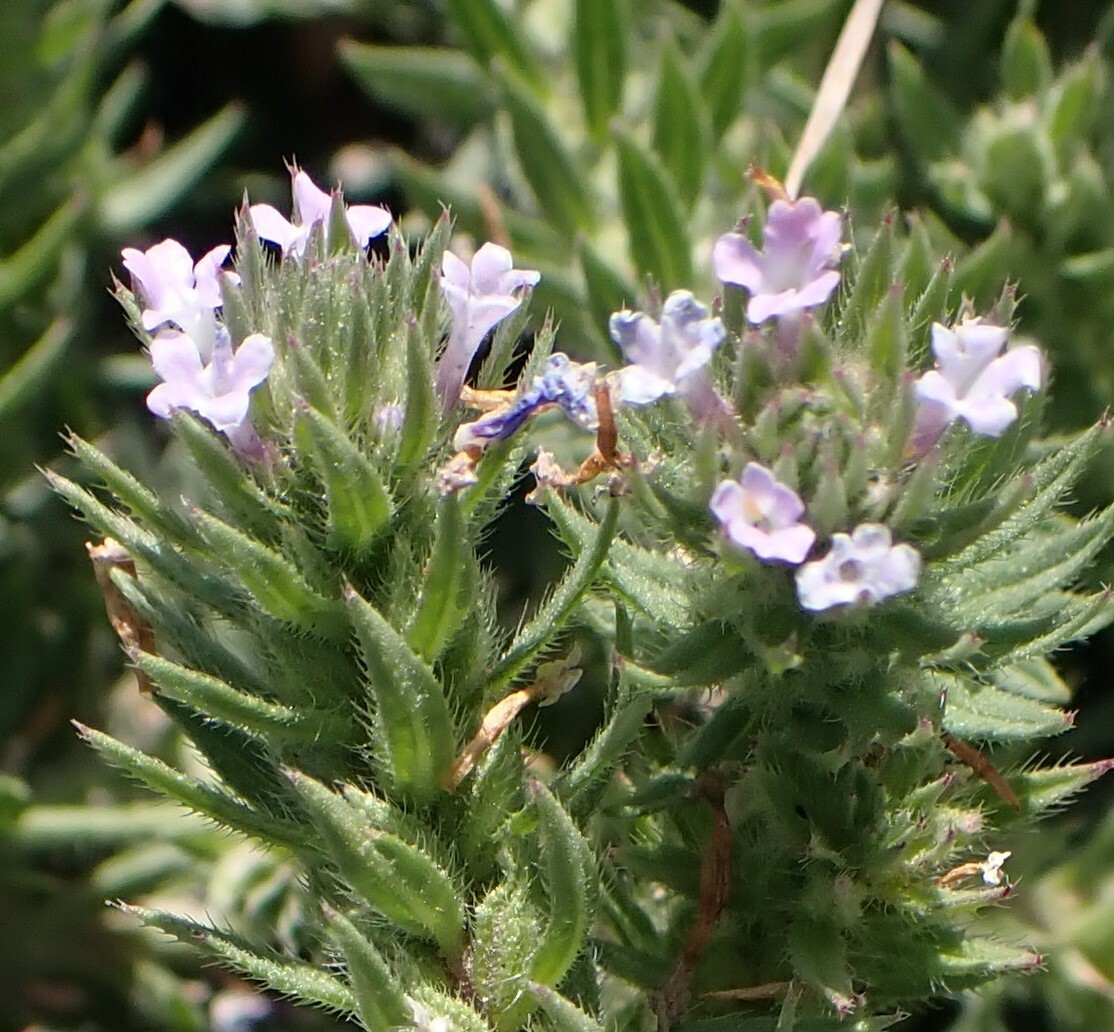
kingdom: Plantae
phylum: Tracheophyta
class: Magnoliopsida
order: Lamiales
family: Verbenaceae
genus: Verbena
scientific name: Verbena bracteata
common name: Bracted vervain
